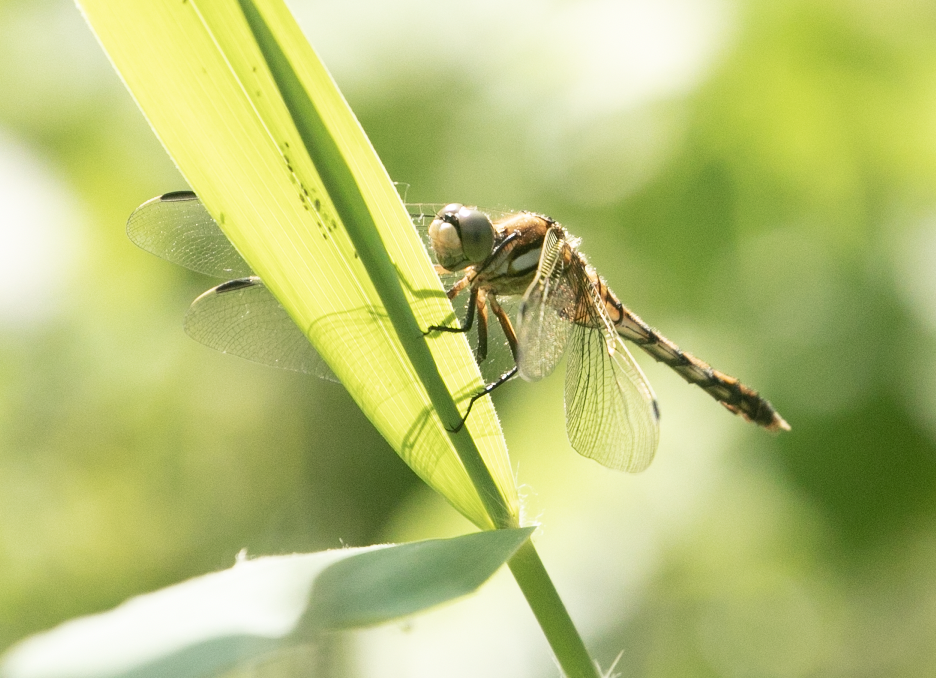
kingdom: Animalia
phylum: Arthropoda
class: Insecta
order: Odonata
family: Libellulidae
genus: Orthetrum
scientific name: Orthetrum albistylum
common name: White-tailed skimmer
